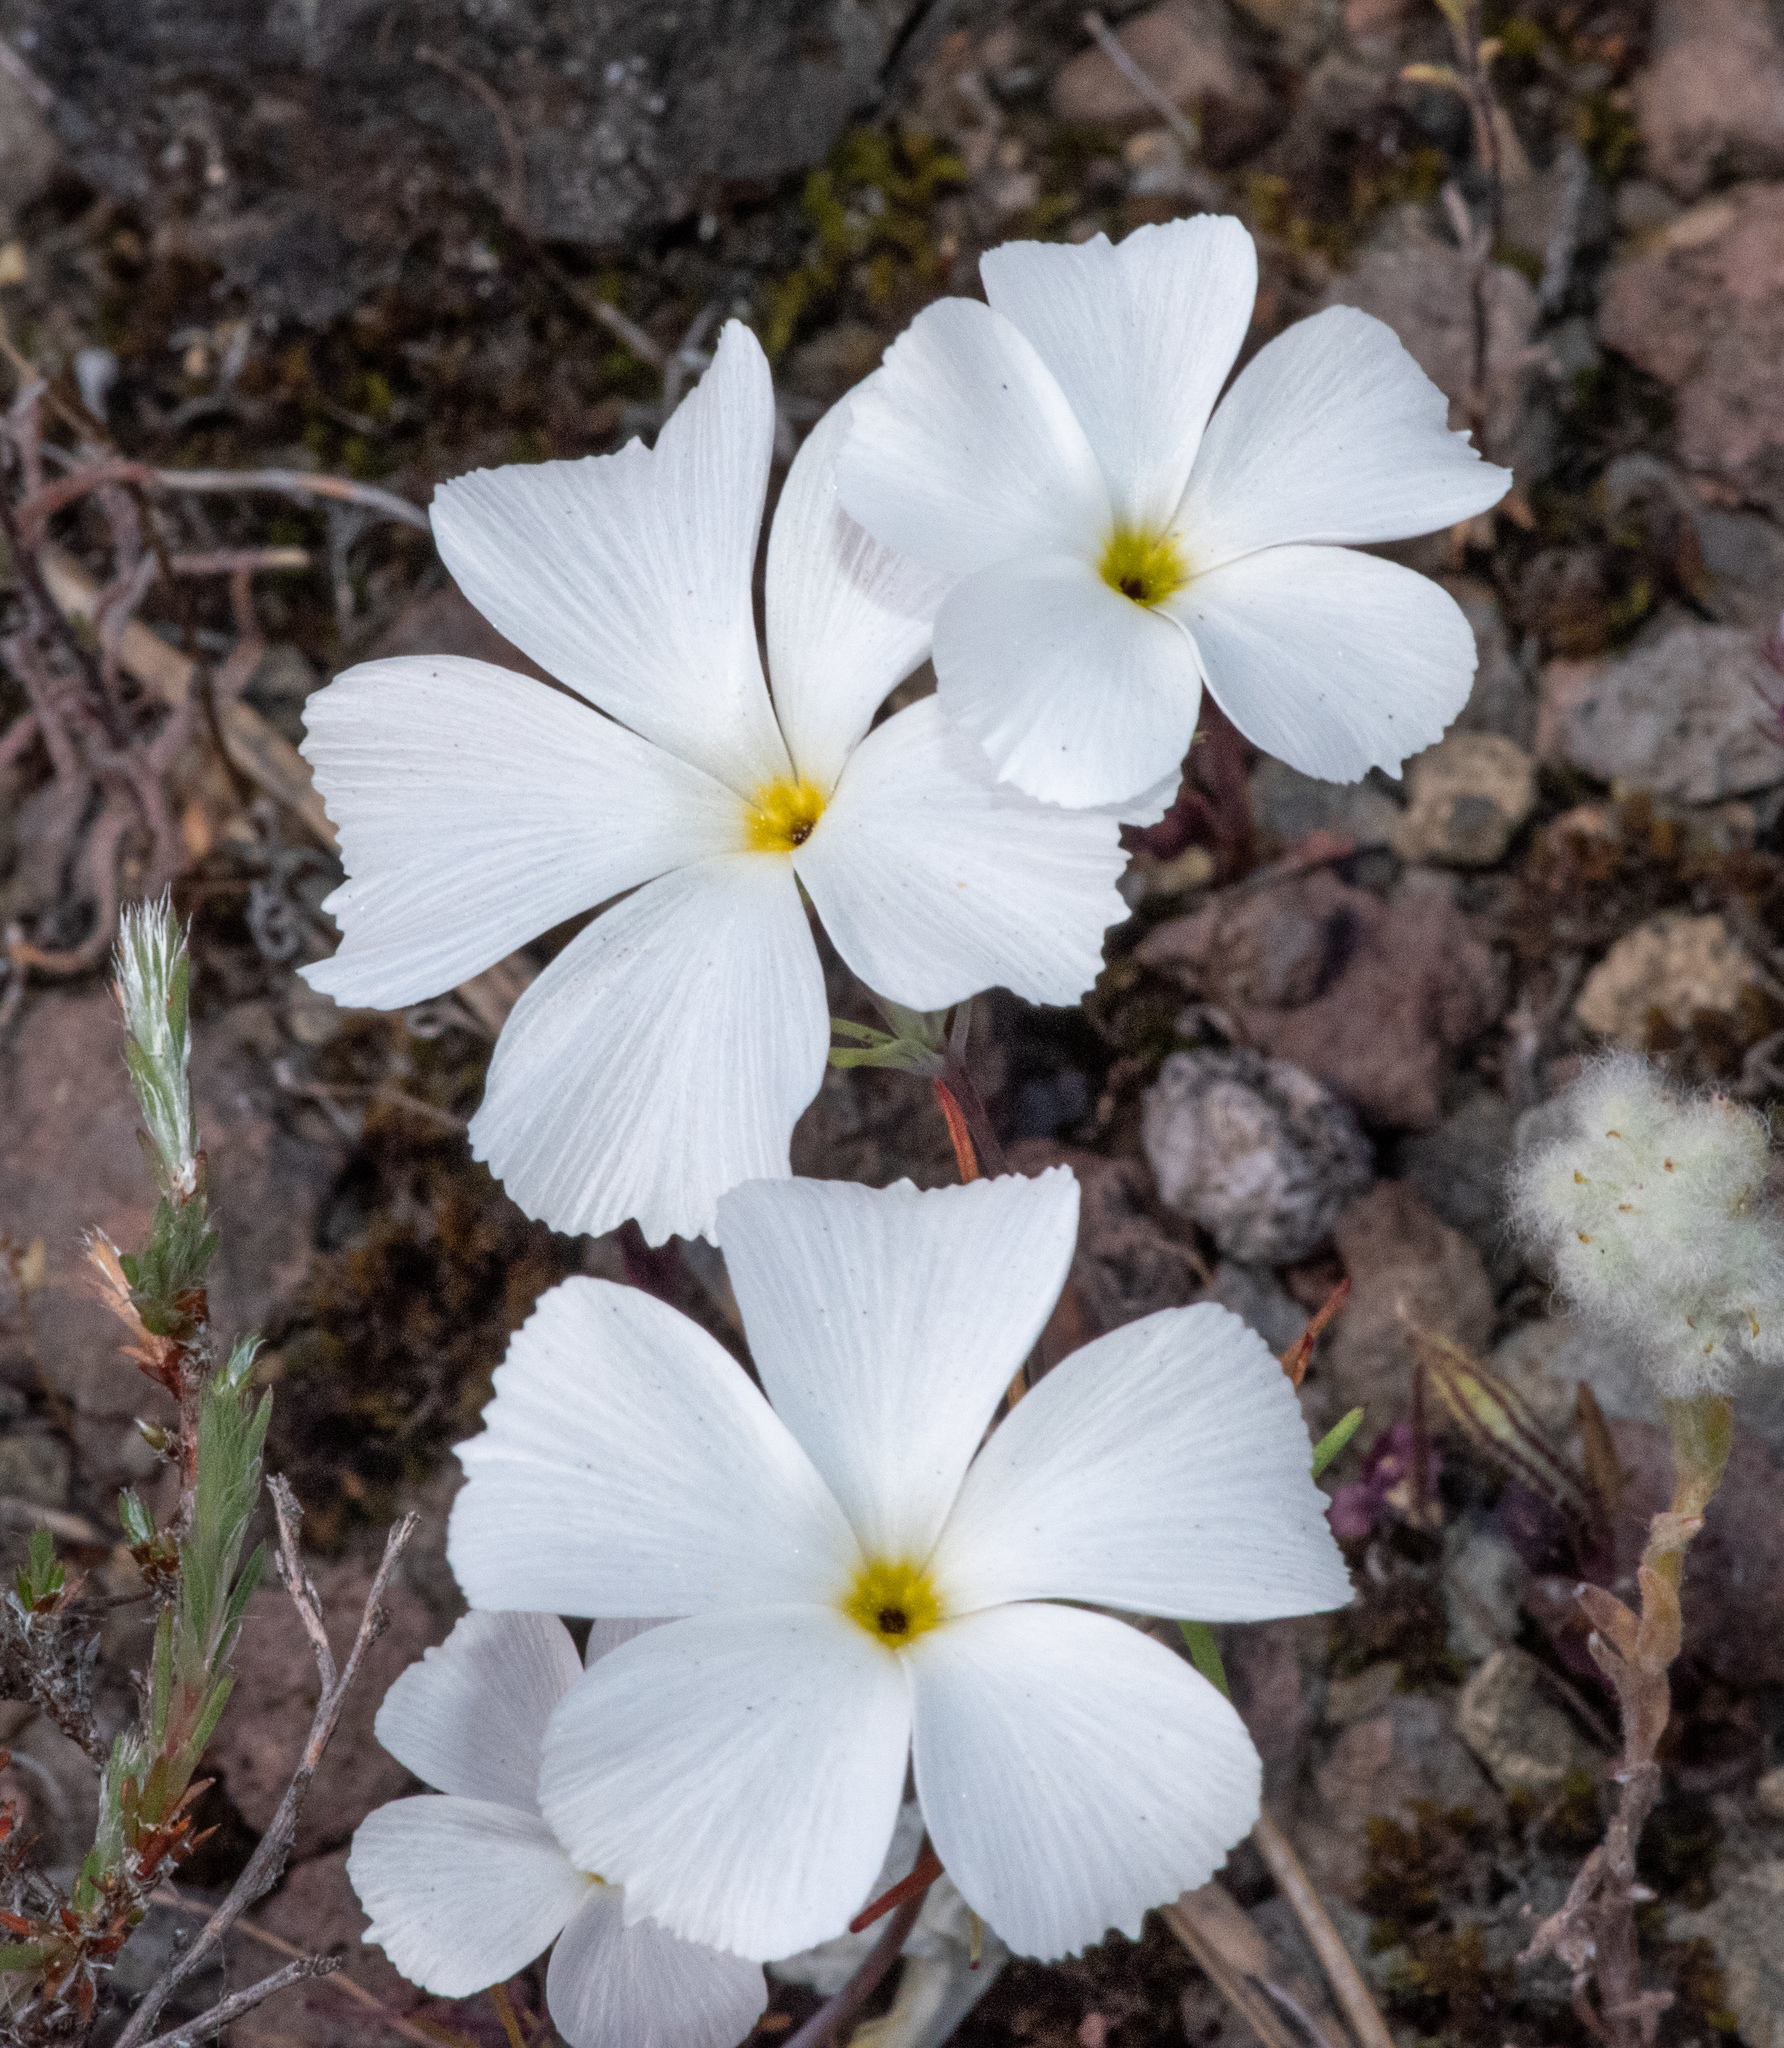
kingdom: Plantae
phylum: Tracheophyta
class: Magnoliopsida
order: Ericales
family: Polemoniaceae
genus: Linanthus
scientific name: Linanthus dichotomus
